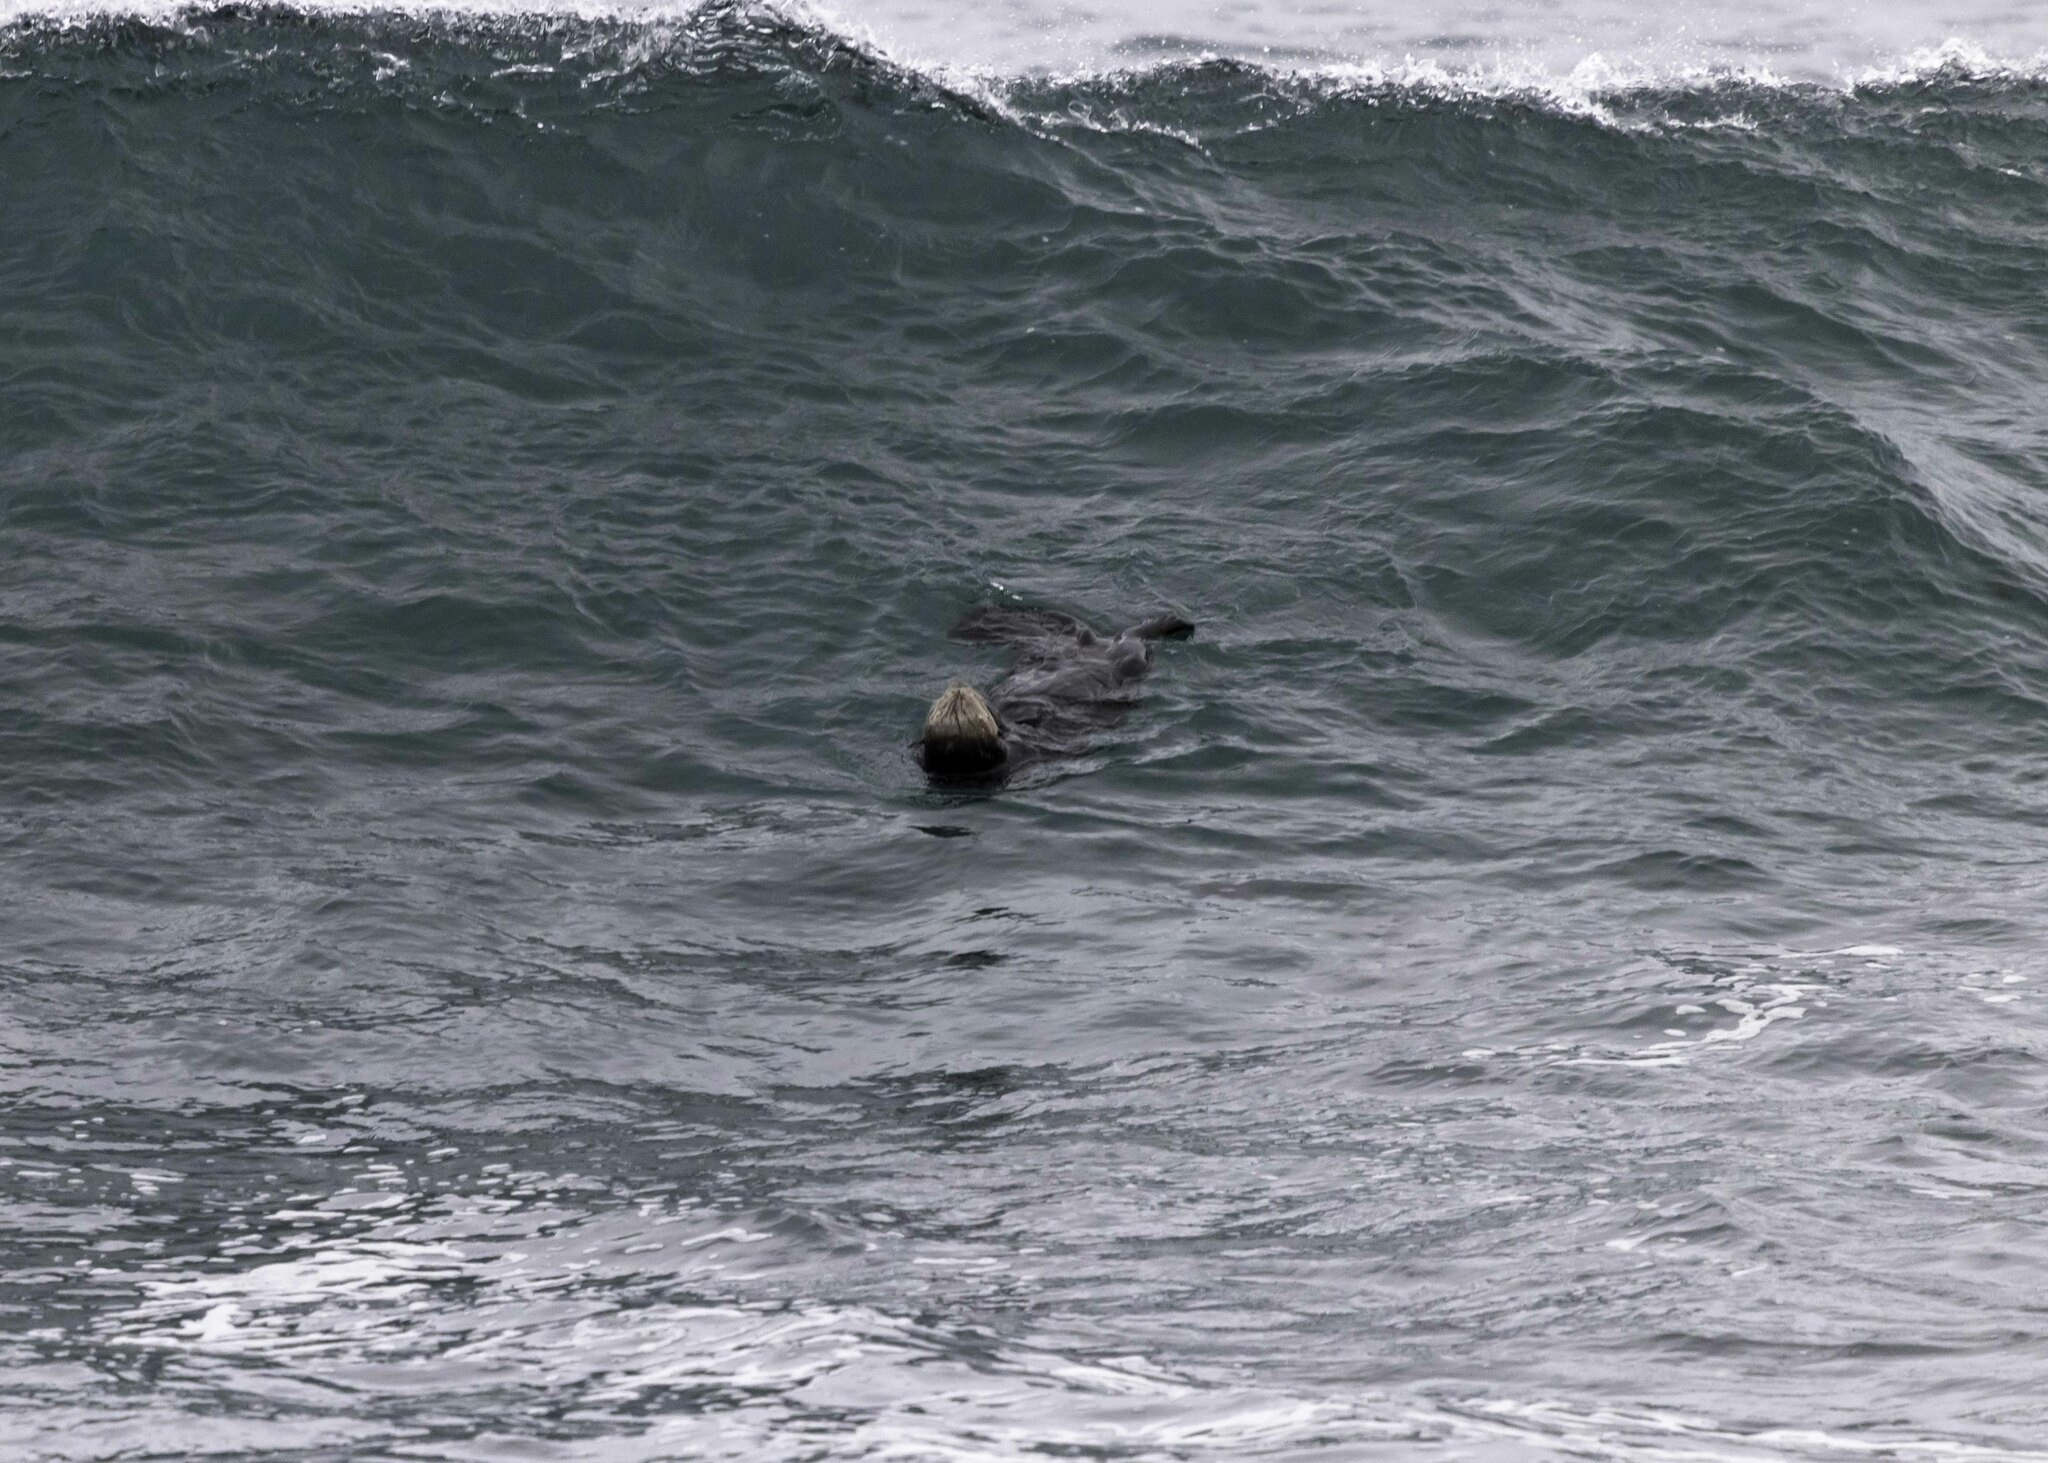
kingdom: Animalia
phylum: Chordata
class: Mammalia
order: Carnivora
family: Mustelidae
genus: Enhydra
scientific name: Enhydra lutris
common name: Sea otter
